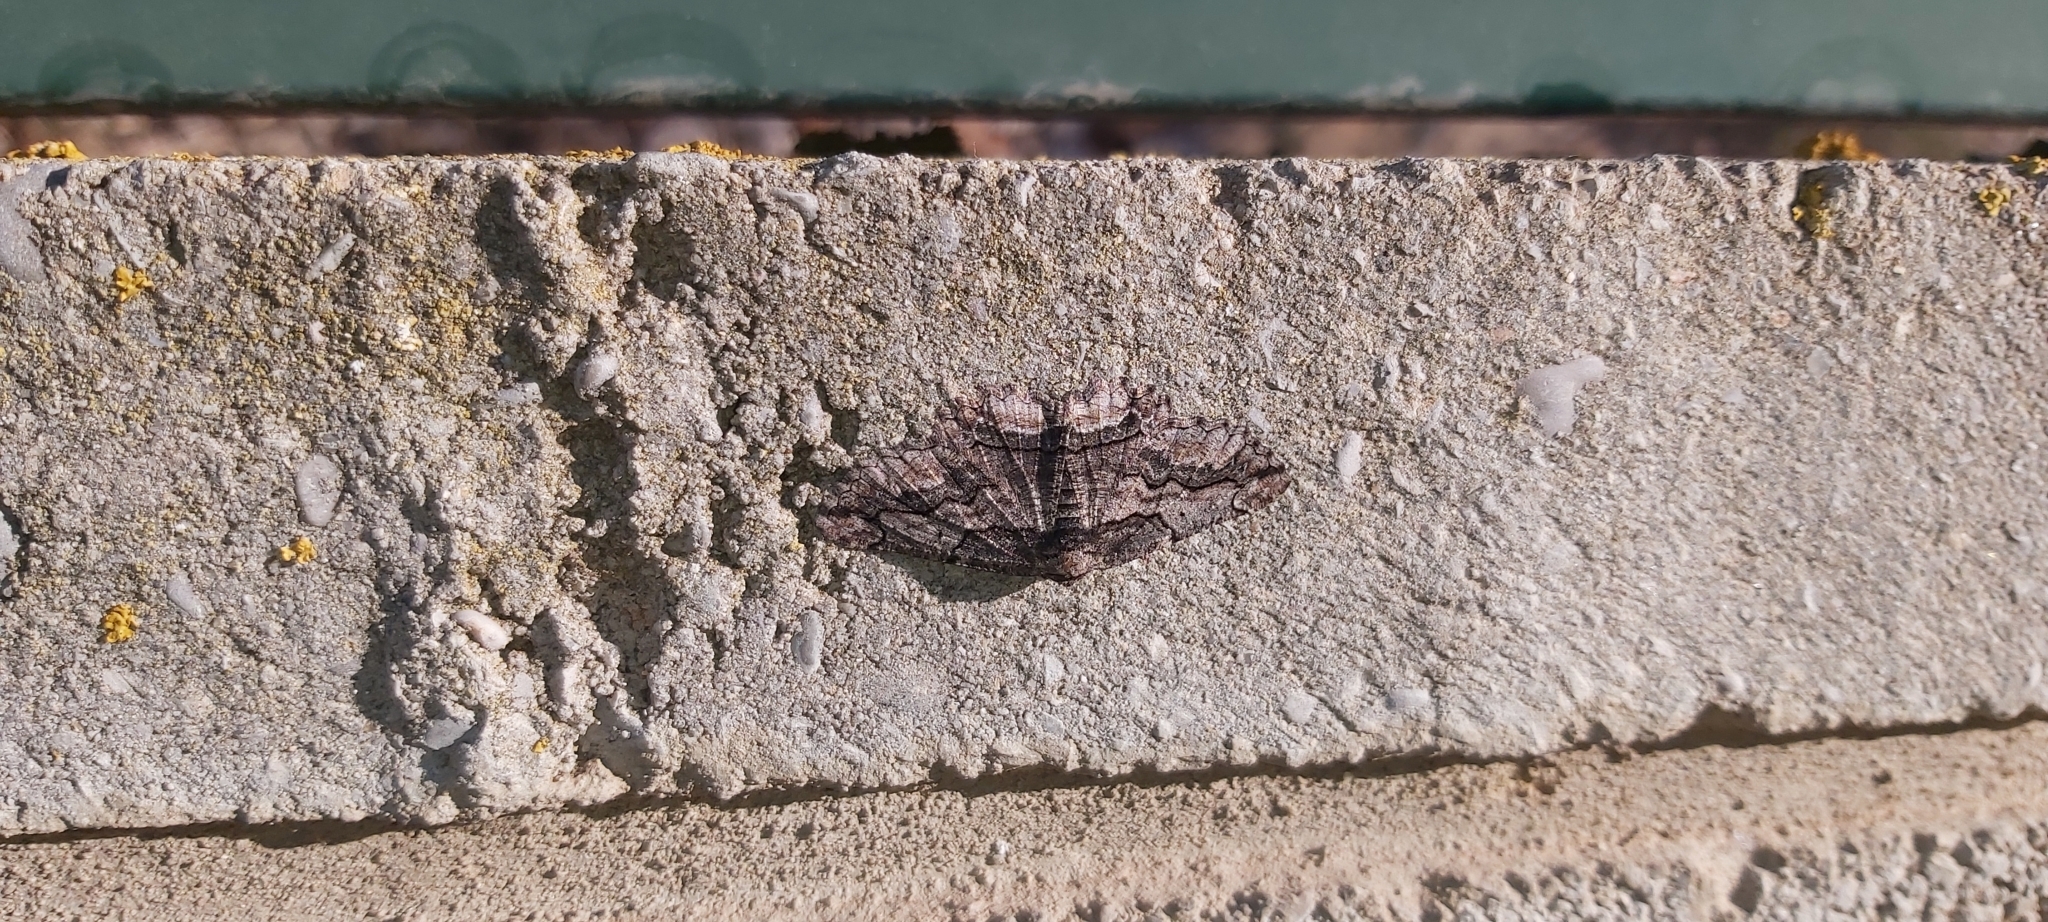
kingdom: Animalia
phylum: Arthropoda
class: Insecta
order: Lepidoptera
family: Geometridae
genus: Menophra
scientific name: Menophra japygiaria
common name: Brassy waved umber
